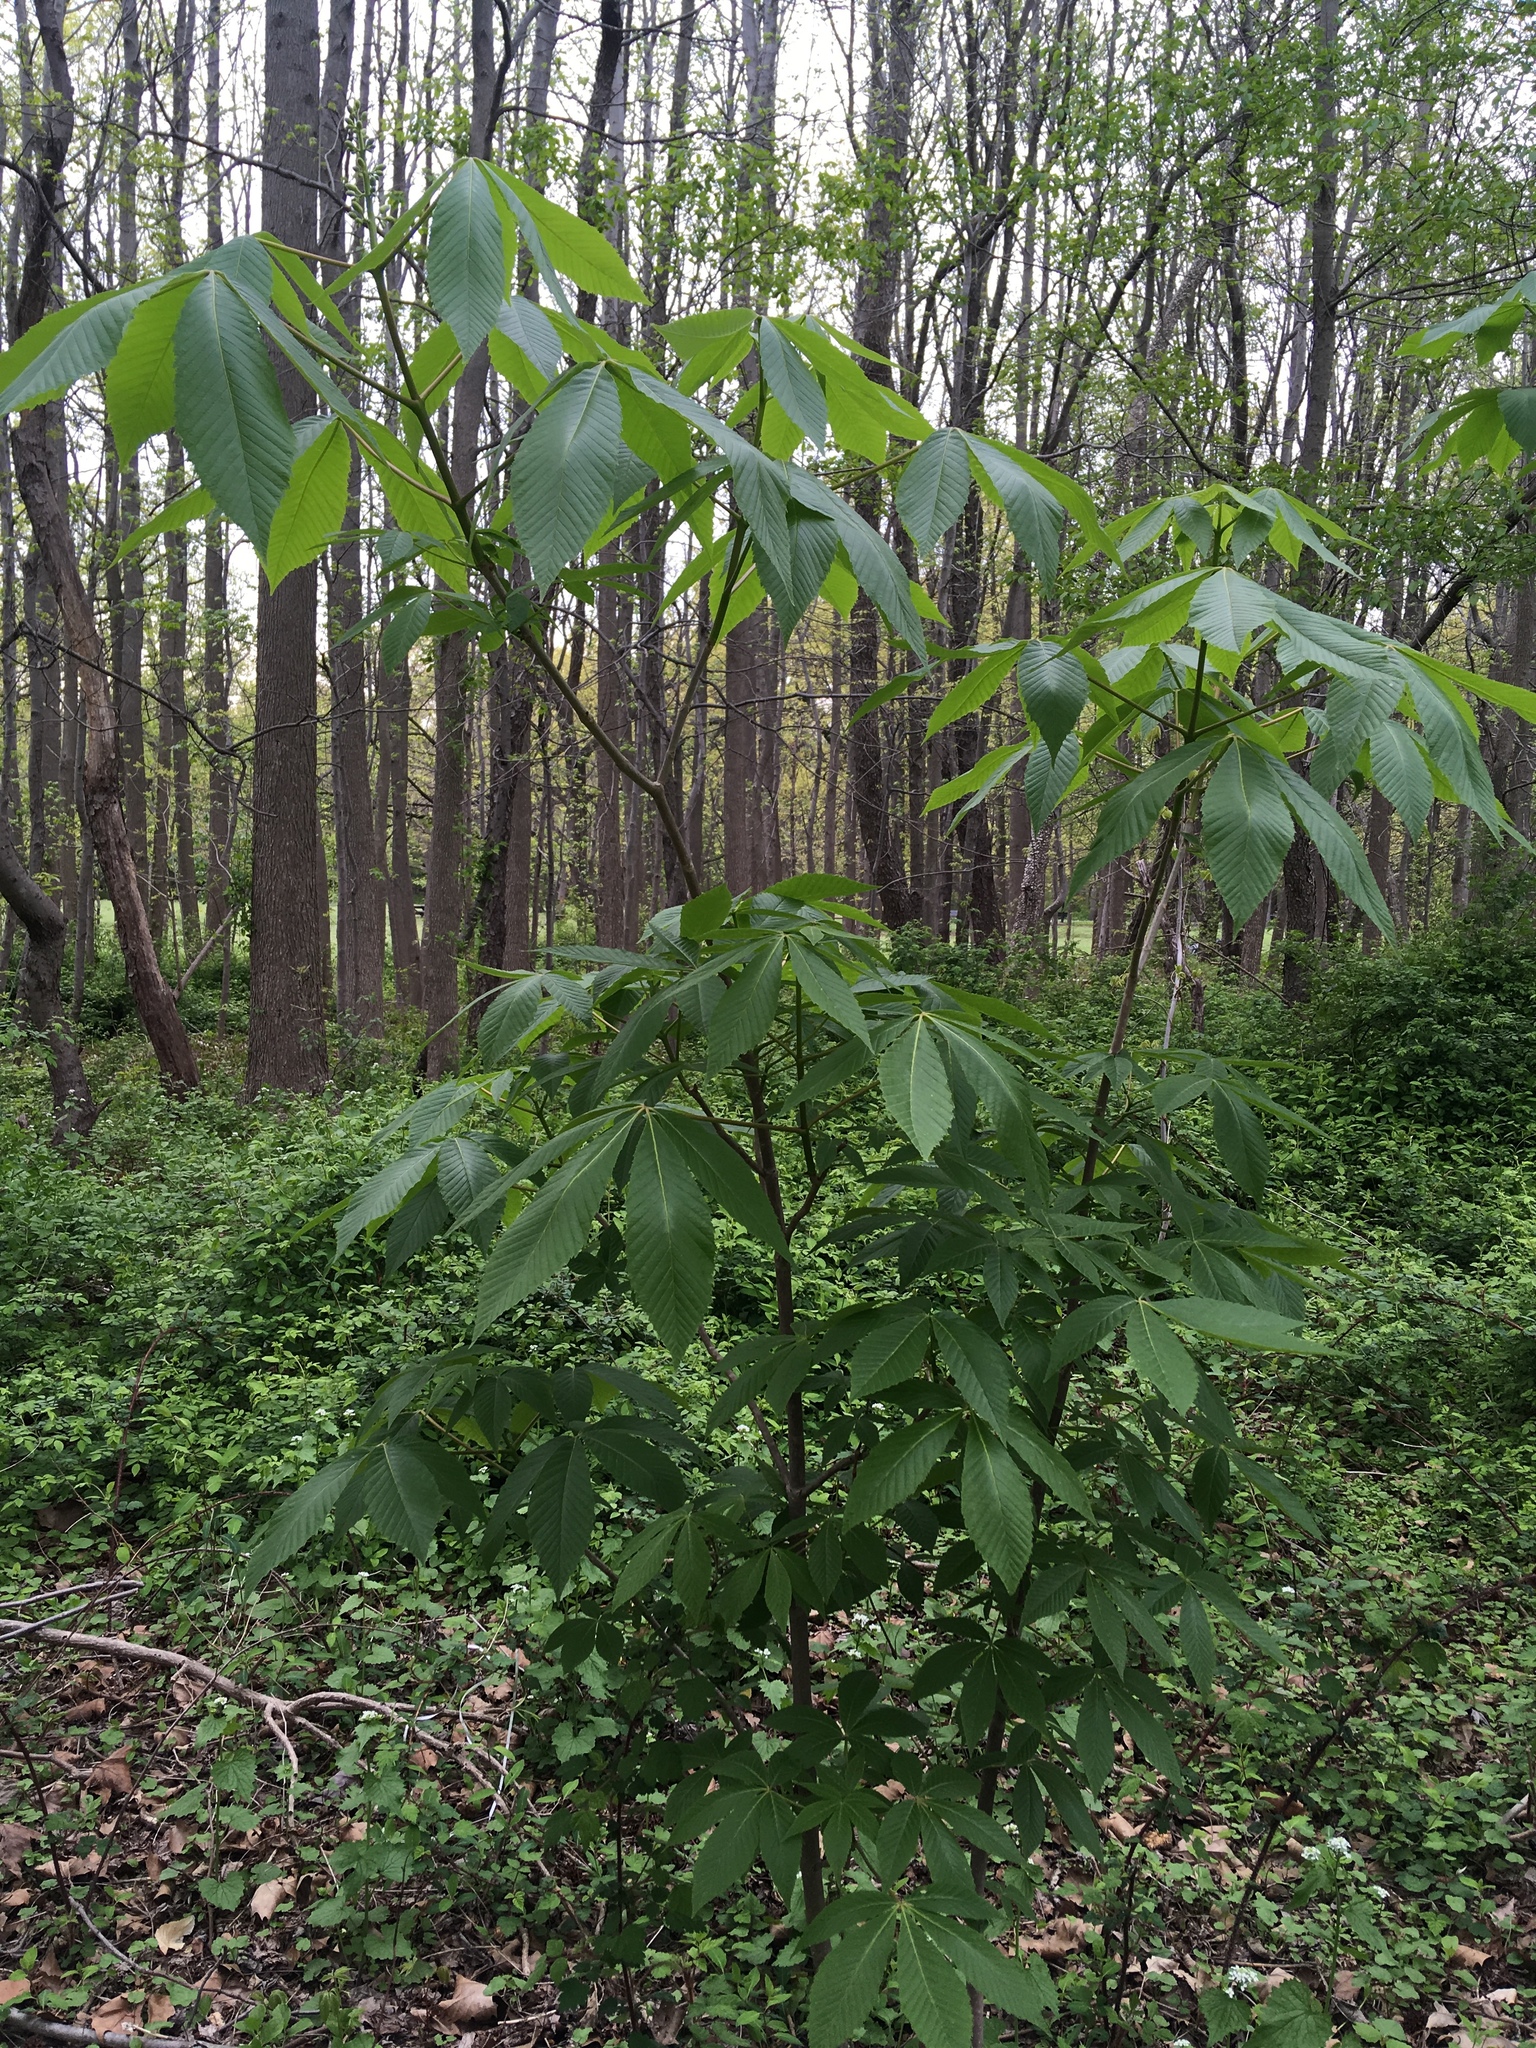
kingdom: Plantae
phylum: Tracheophyta
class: Magnoliopsida
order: Sapindales
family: Sapindaceae
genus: Aesculus
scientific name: Aesculus glabra
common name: Ohio buckeye
